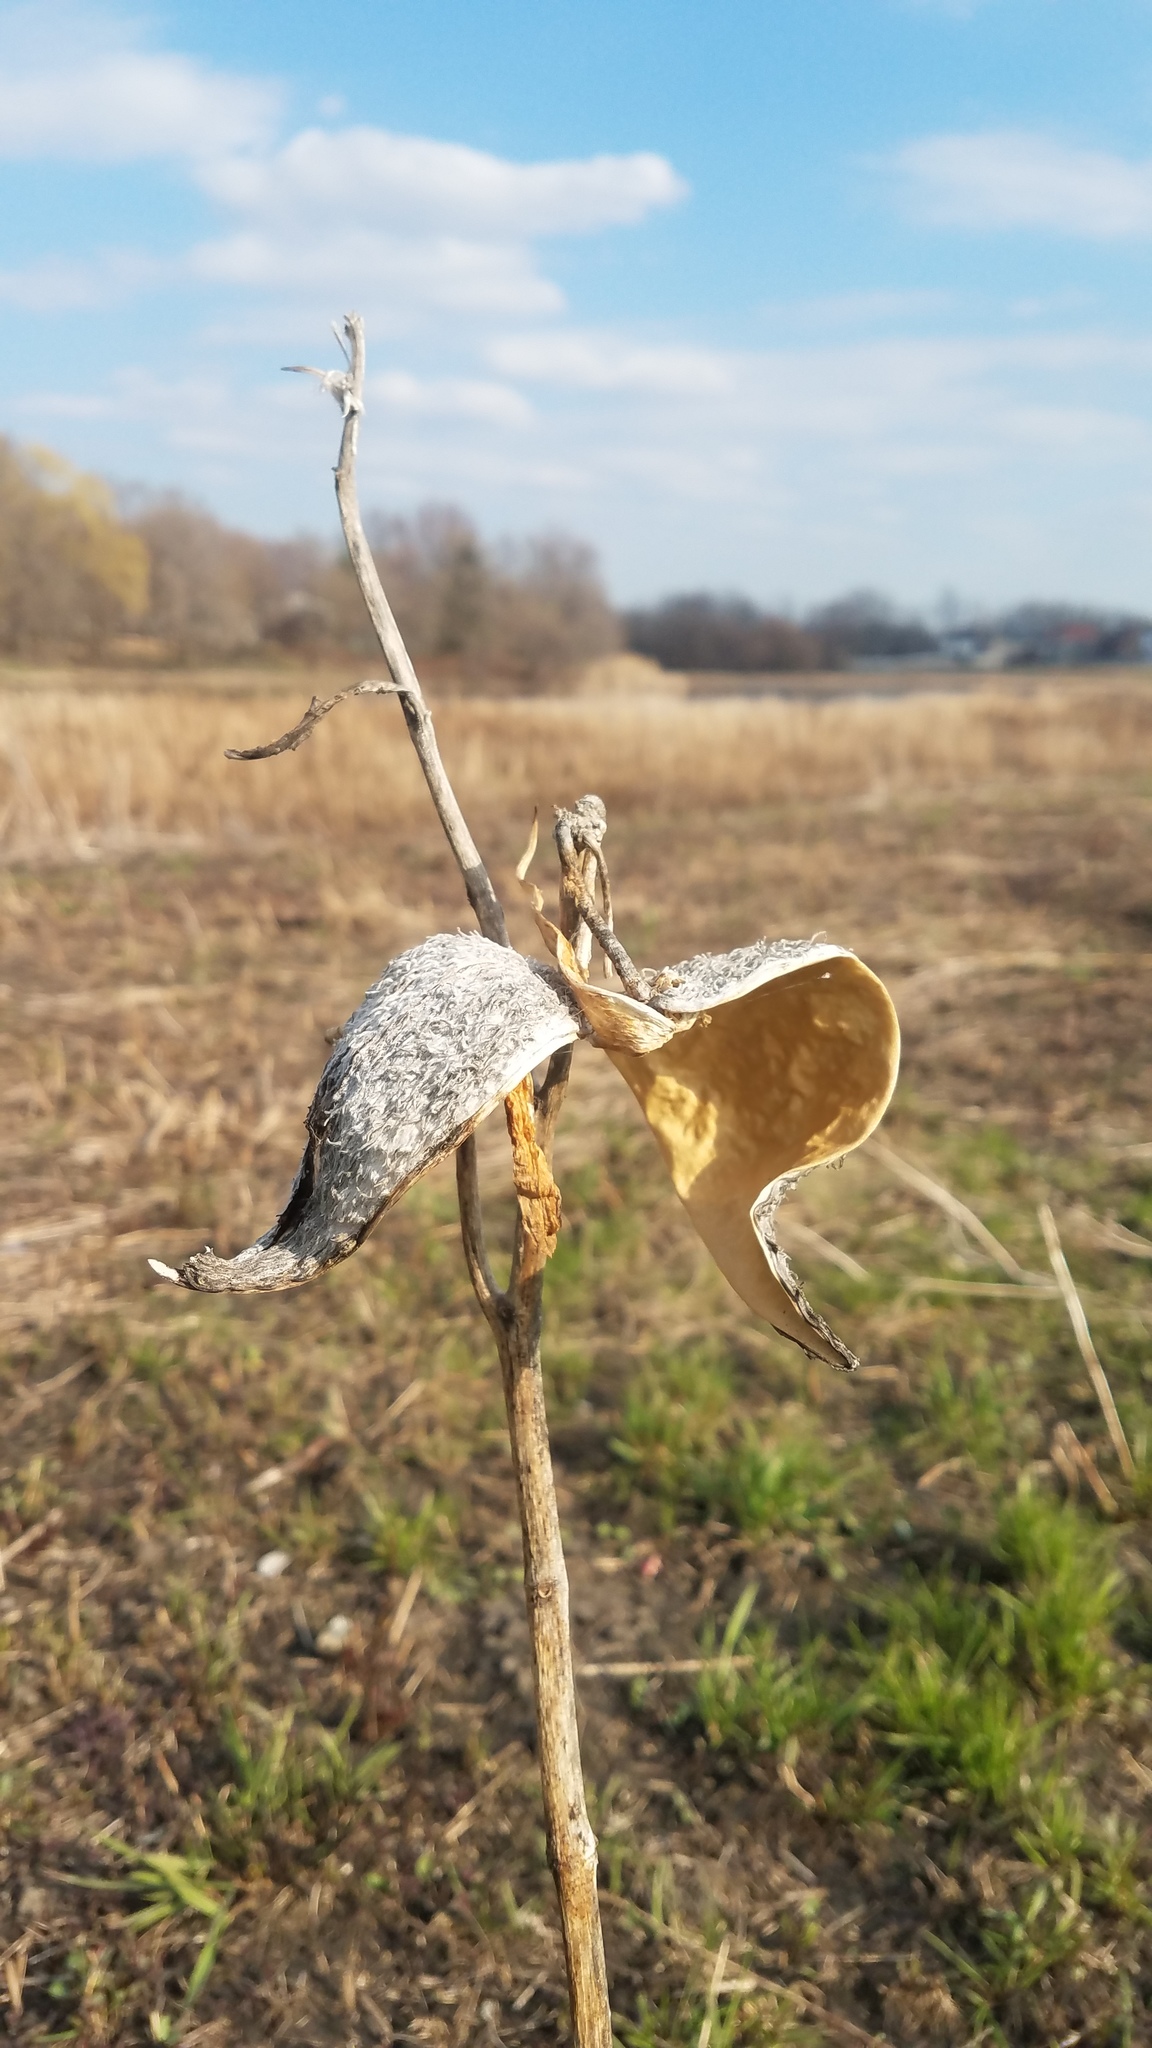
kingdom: Plantae
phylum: Tracheophyta
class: Magnoliopsida
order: Gentianales
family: Apocynaceae
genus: Asclepias
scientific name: Asclepias syriaca
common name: Common milkweed
